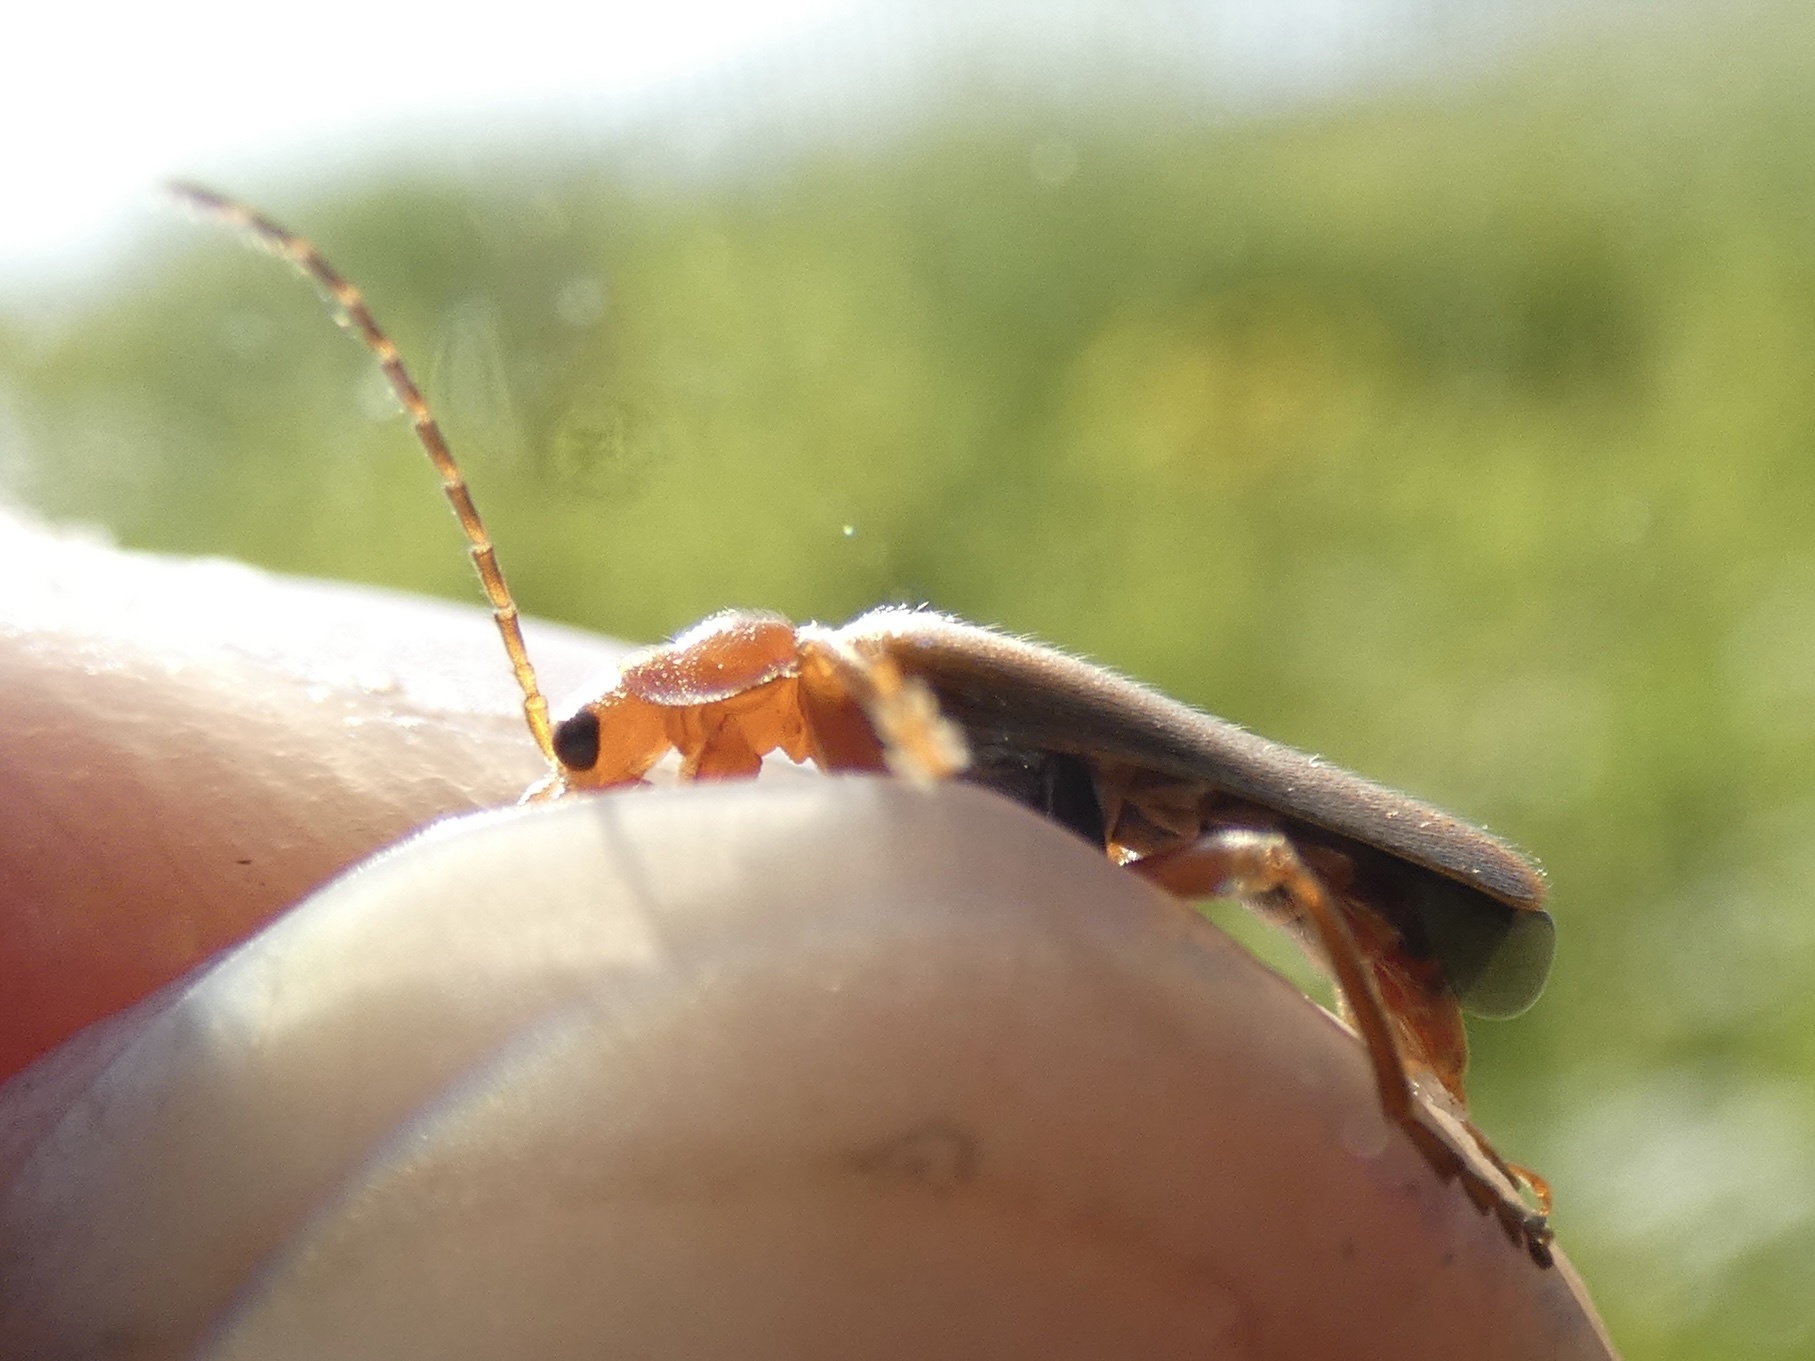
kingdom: Animalia
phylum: Arthropoda
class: Insecta
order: Coleoptera
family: Cantharidae
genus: Cantharis
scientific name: Cantharis pallida
